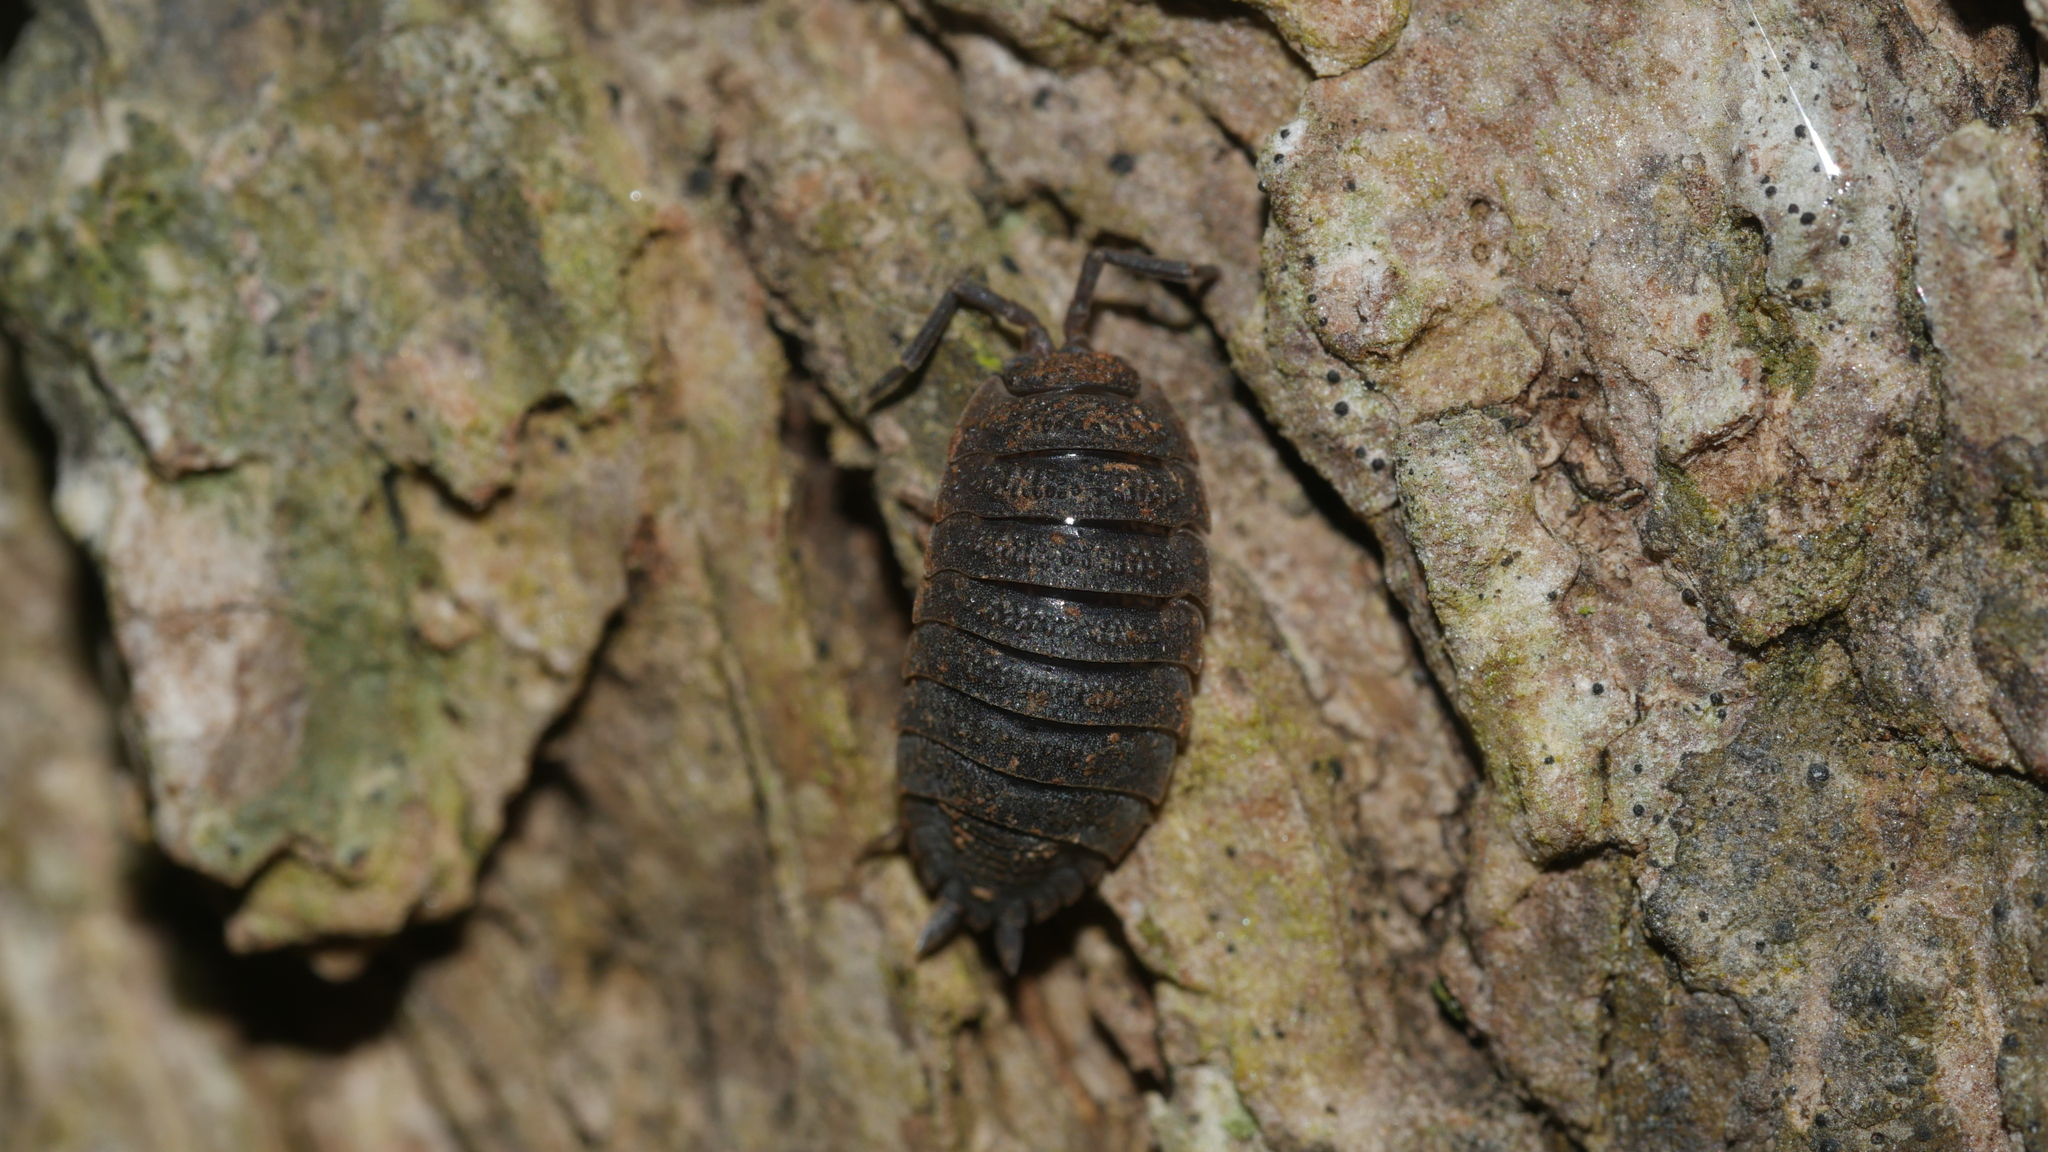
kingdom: Animalia
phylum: Arthropoda
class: Malacostraca
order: Isopoda
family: Porcellionidae
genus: Porcellio
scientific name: Porcellio scaber
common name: Common rough woodlouse
